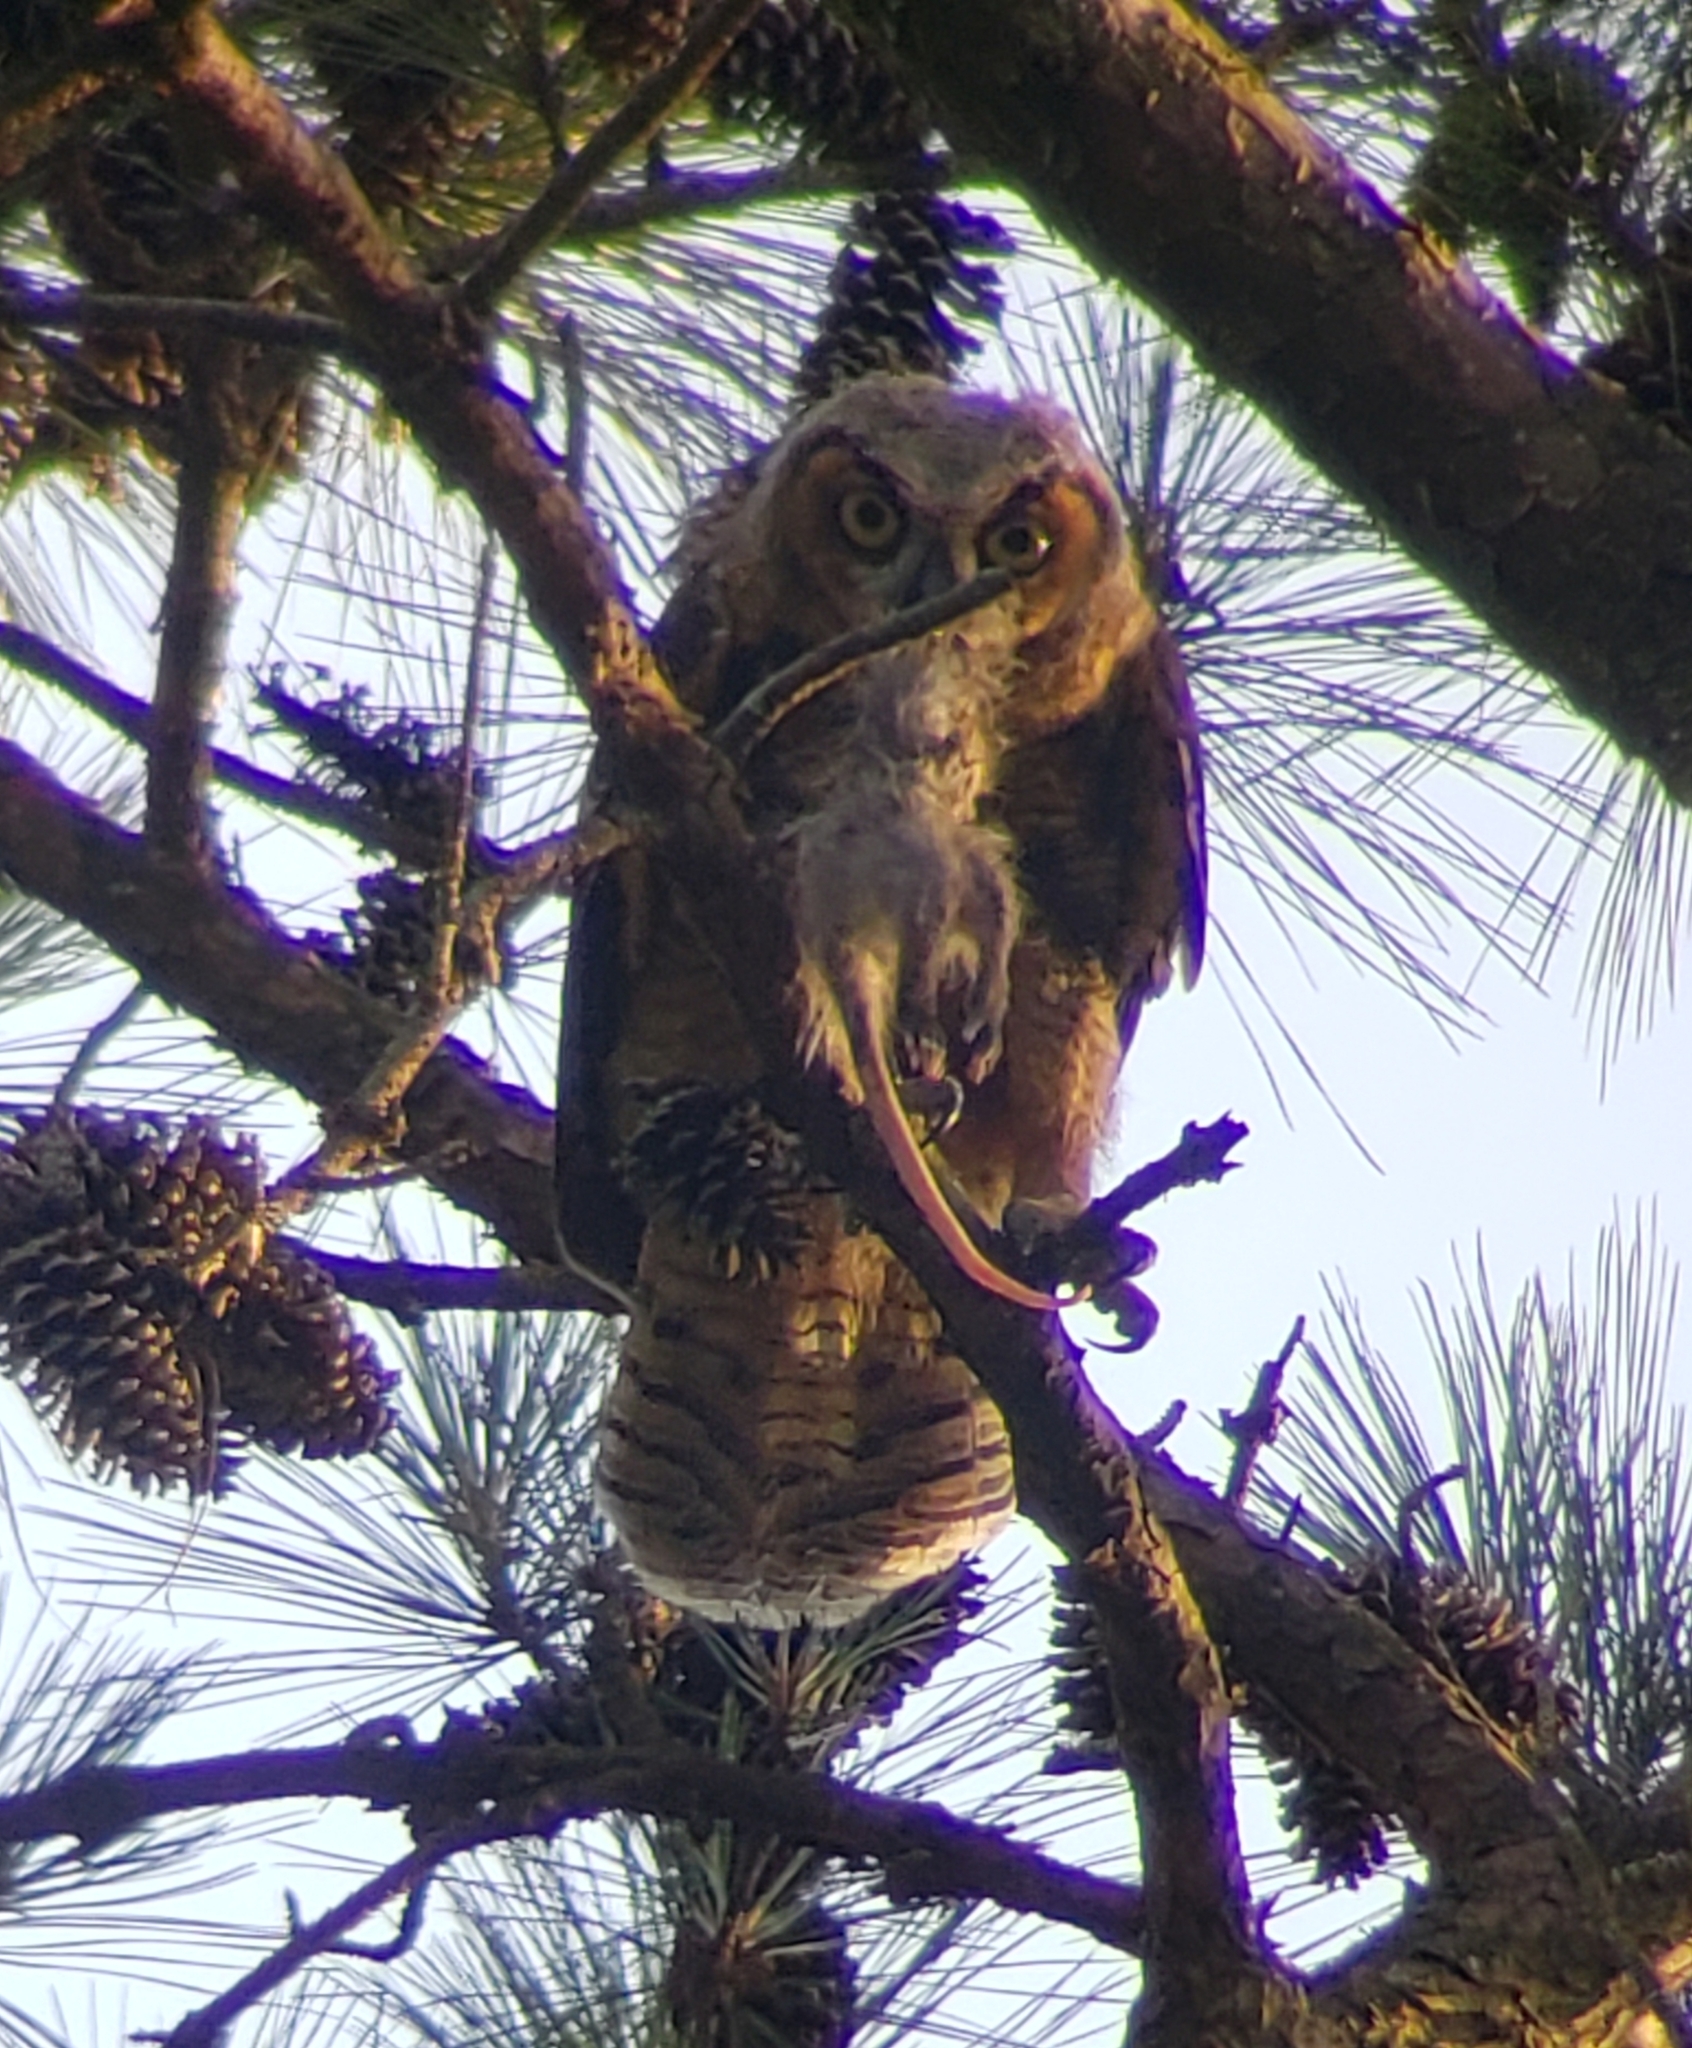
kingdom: Animalia
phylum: Chordata
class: Aves
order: Strigiformes
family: Strigidae
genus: Bubo
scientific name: Bubo virginianus
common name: Great horned owl
